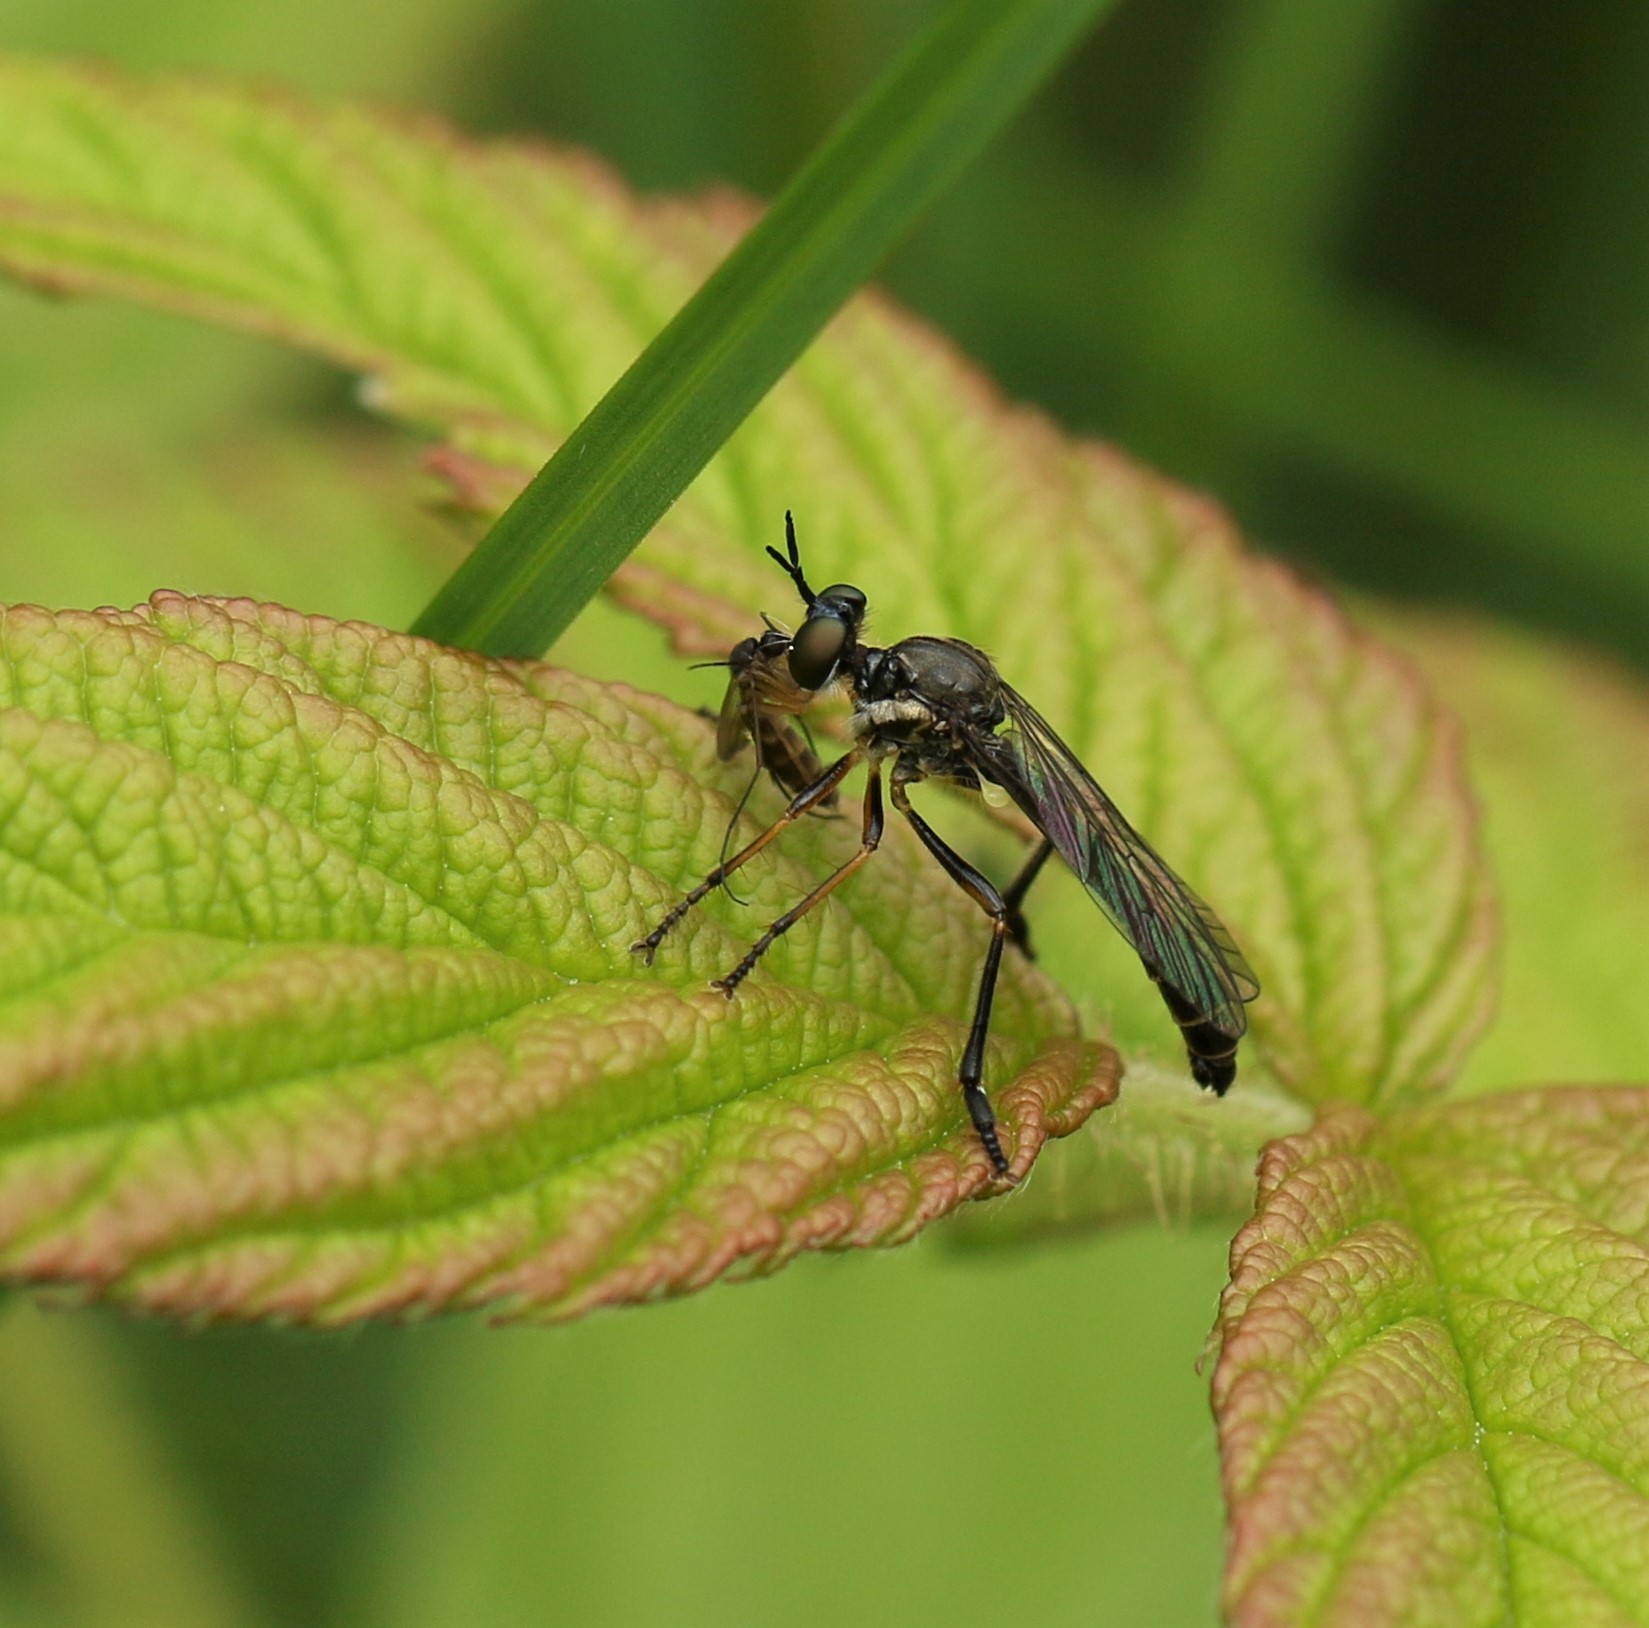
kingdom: Animalia
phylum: Arthropoda
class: Insecta
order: Diptera
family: Asilidae
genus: Dioctria
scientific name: Dioctria hyalipennis
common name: Stripe-legged robberfly
